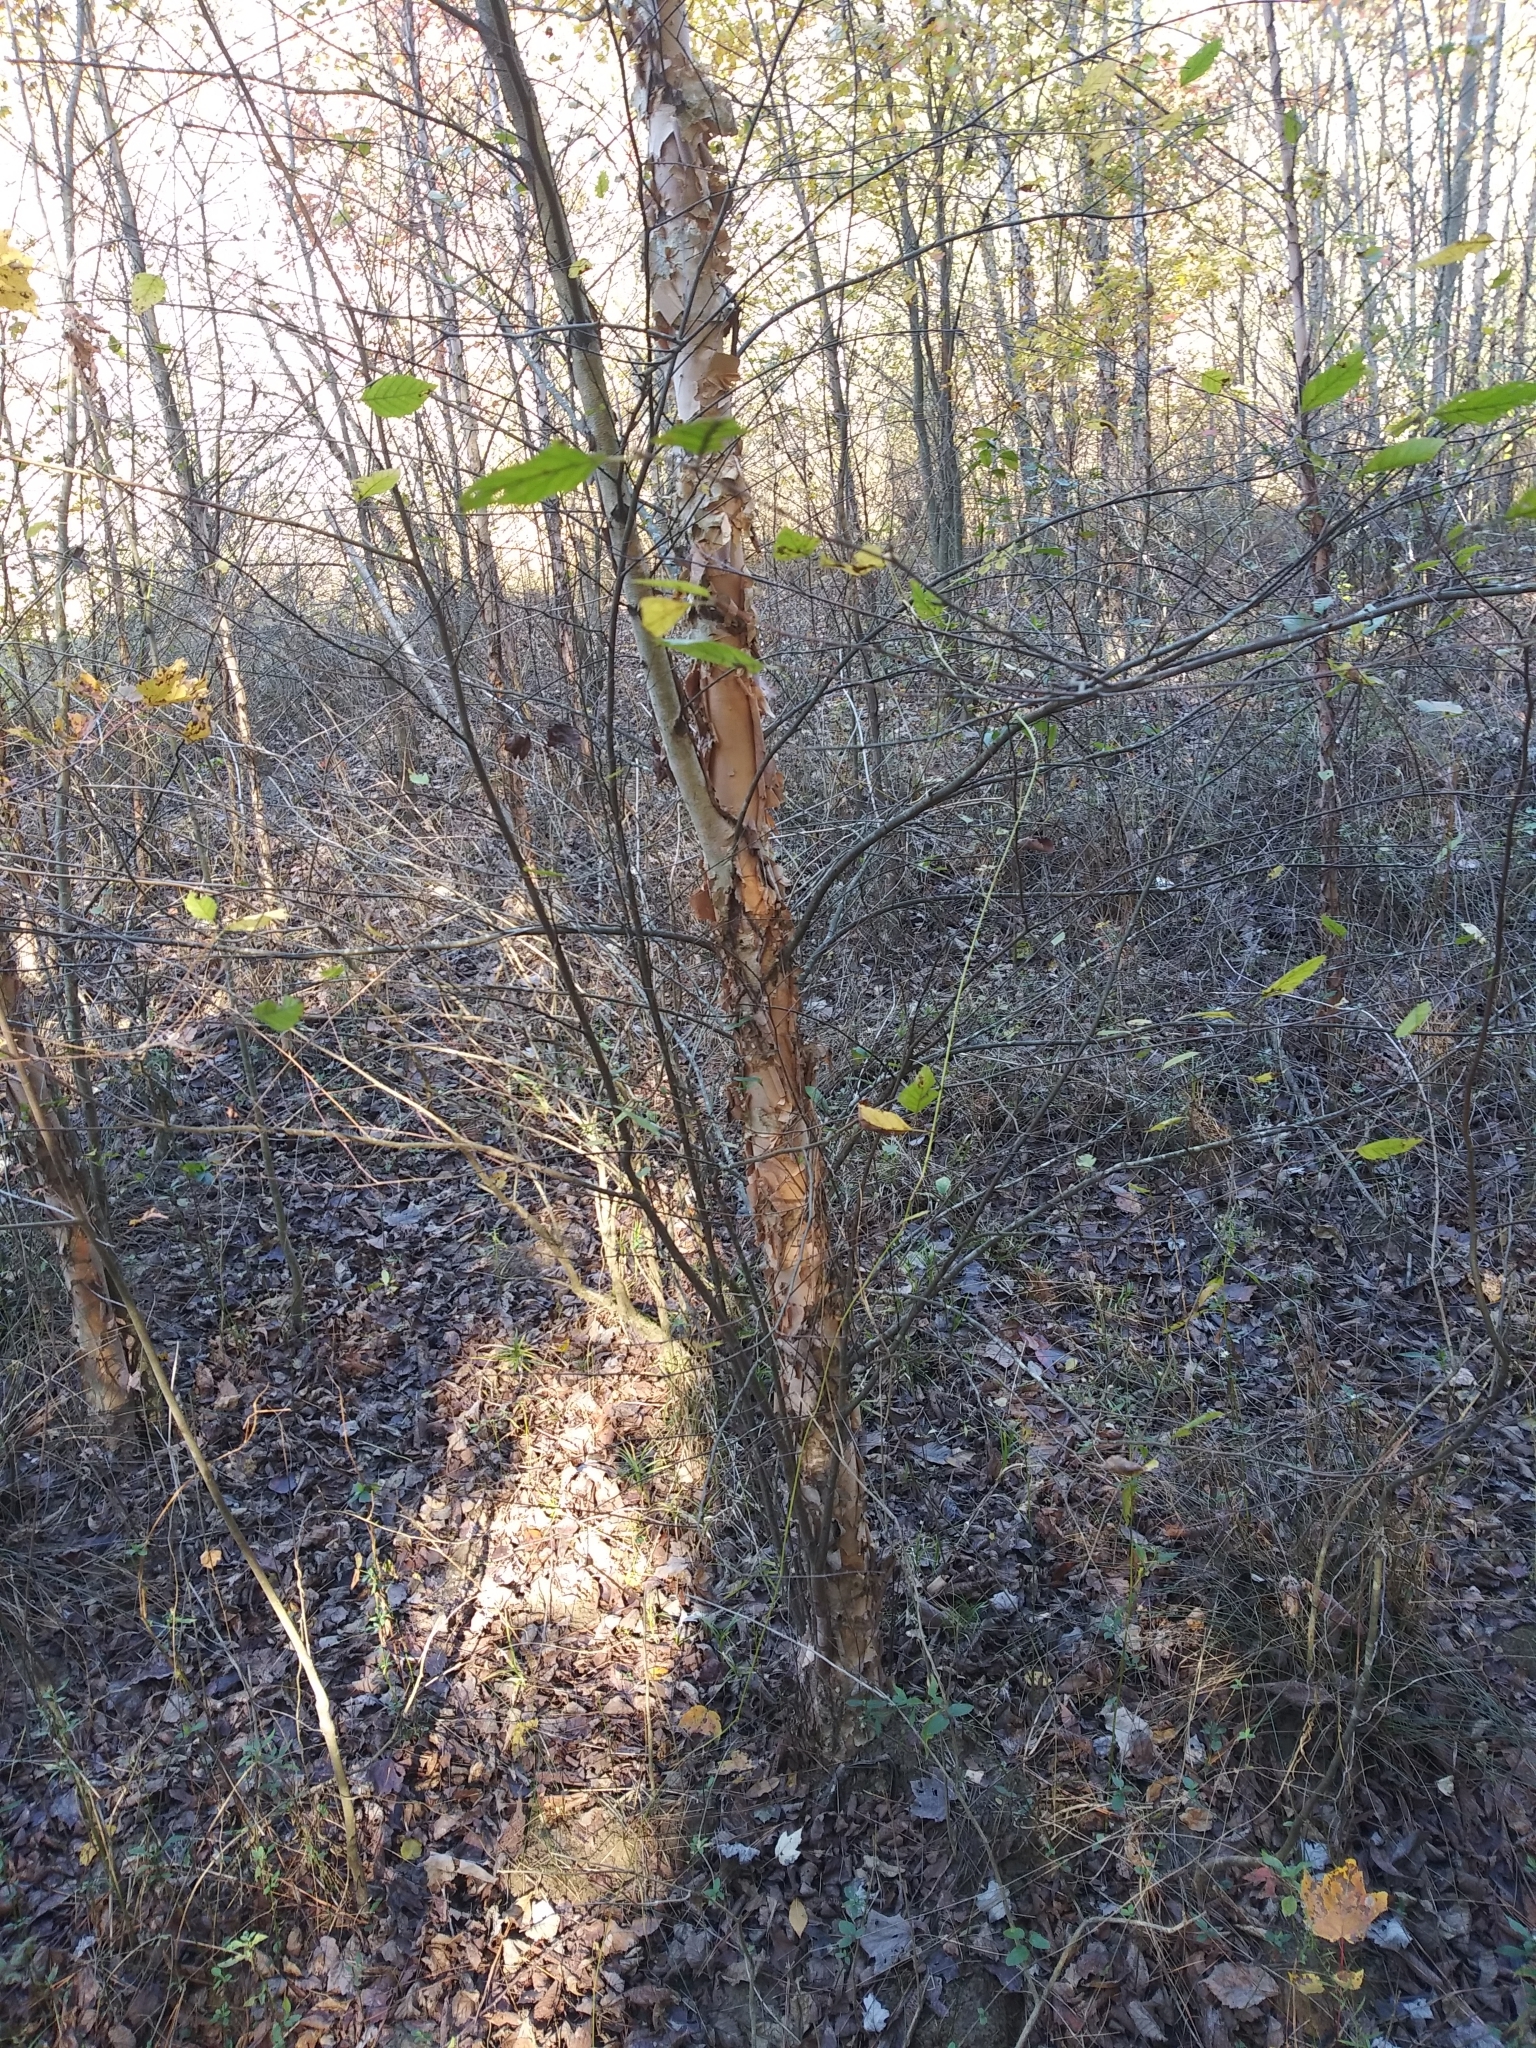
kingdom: Plantae
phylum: Tracheophyta
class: Magnoliopsida
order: Fagales
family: Betulaceae
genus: Betula
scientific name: Betula nigra
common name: Black birch
